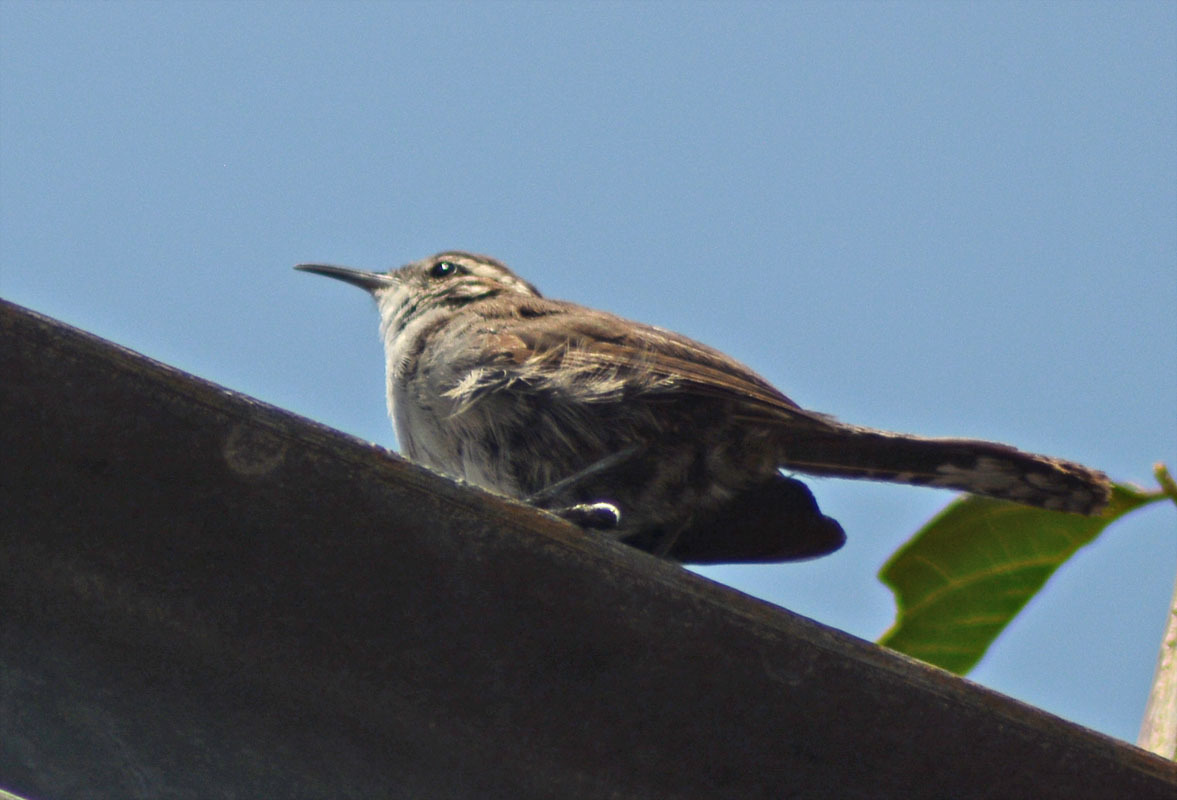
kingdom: Animalia
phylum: Chordata
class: Aves
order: Passeriformes
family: Troglodytidae
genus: Thryomanes
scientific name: Thryomanes bewickii
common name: Bewick's wren
